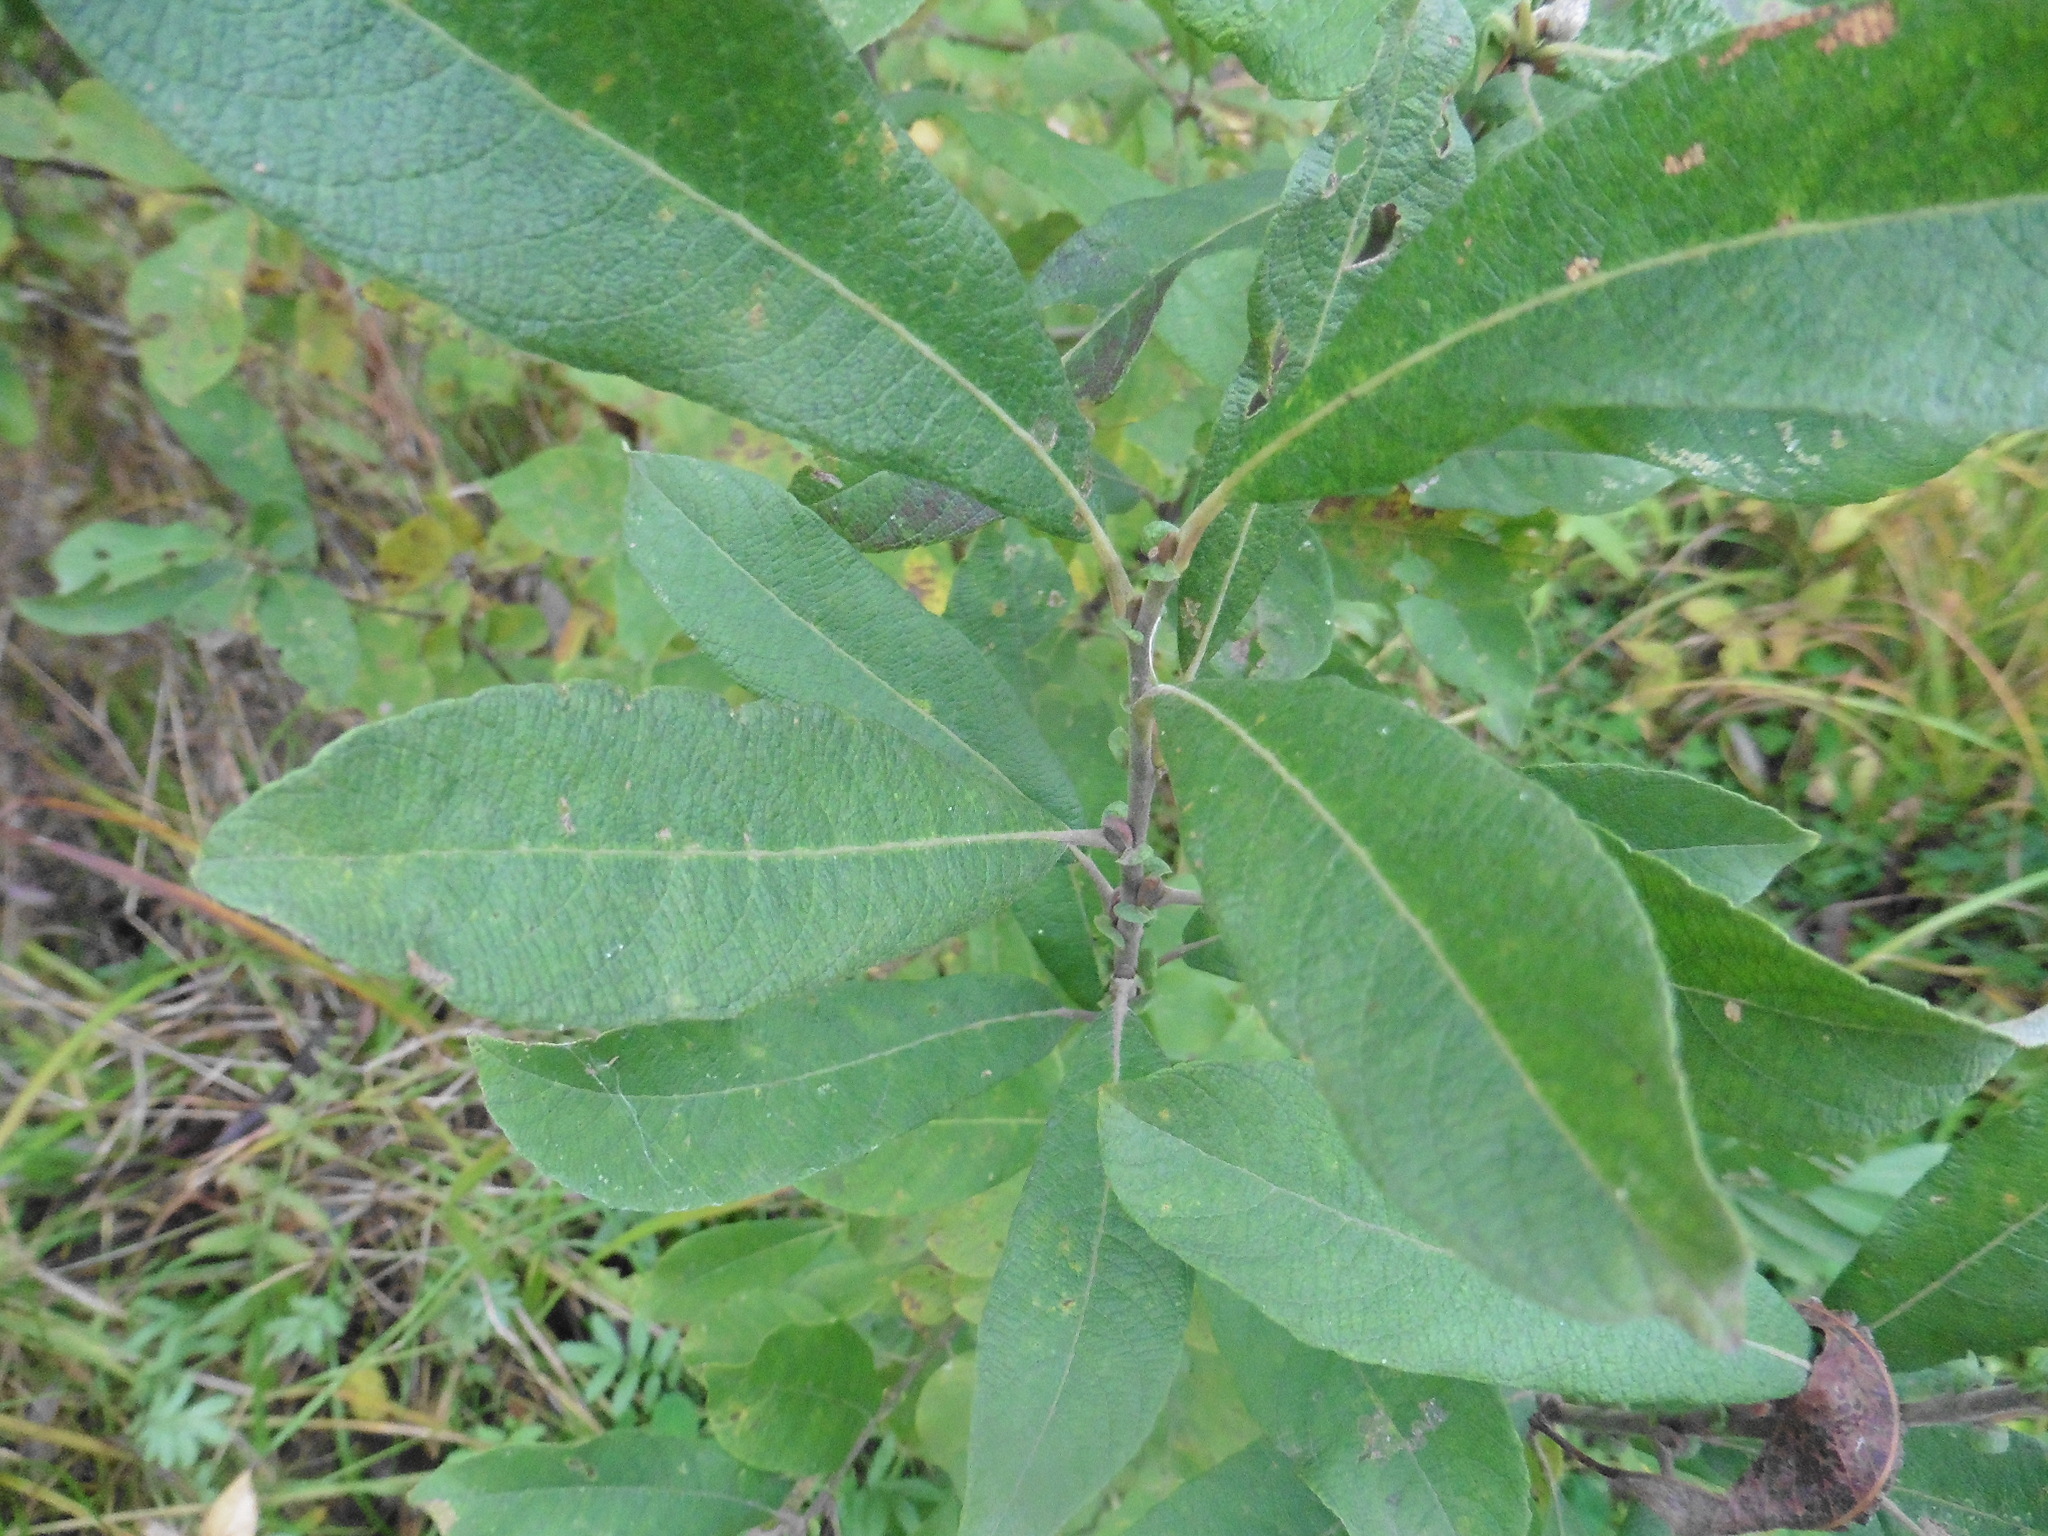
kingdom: Plantae
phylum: Tracheophyta
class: Magnoliopsida
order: Malpighiales
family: Salicaceae
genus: Salix
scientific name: Salix cinerea
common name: Common sallow
